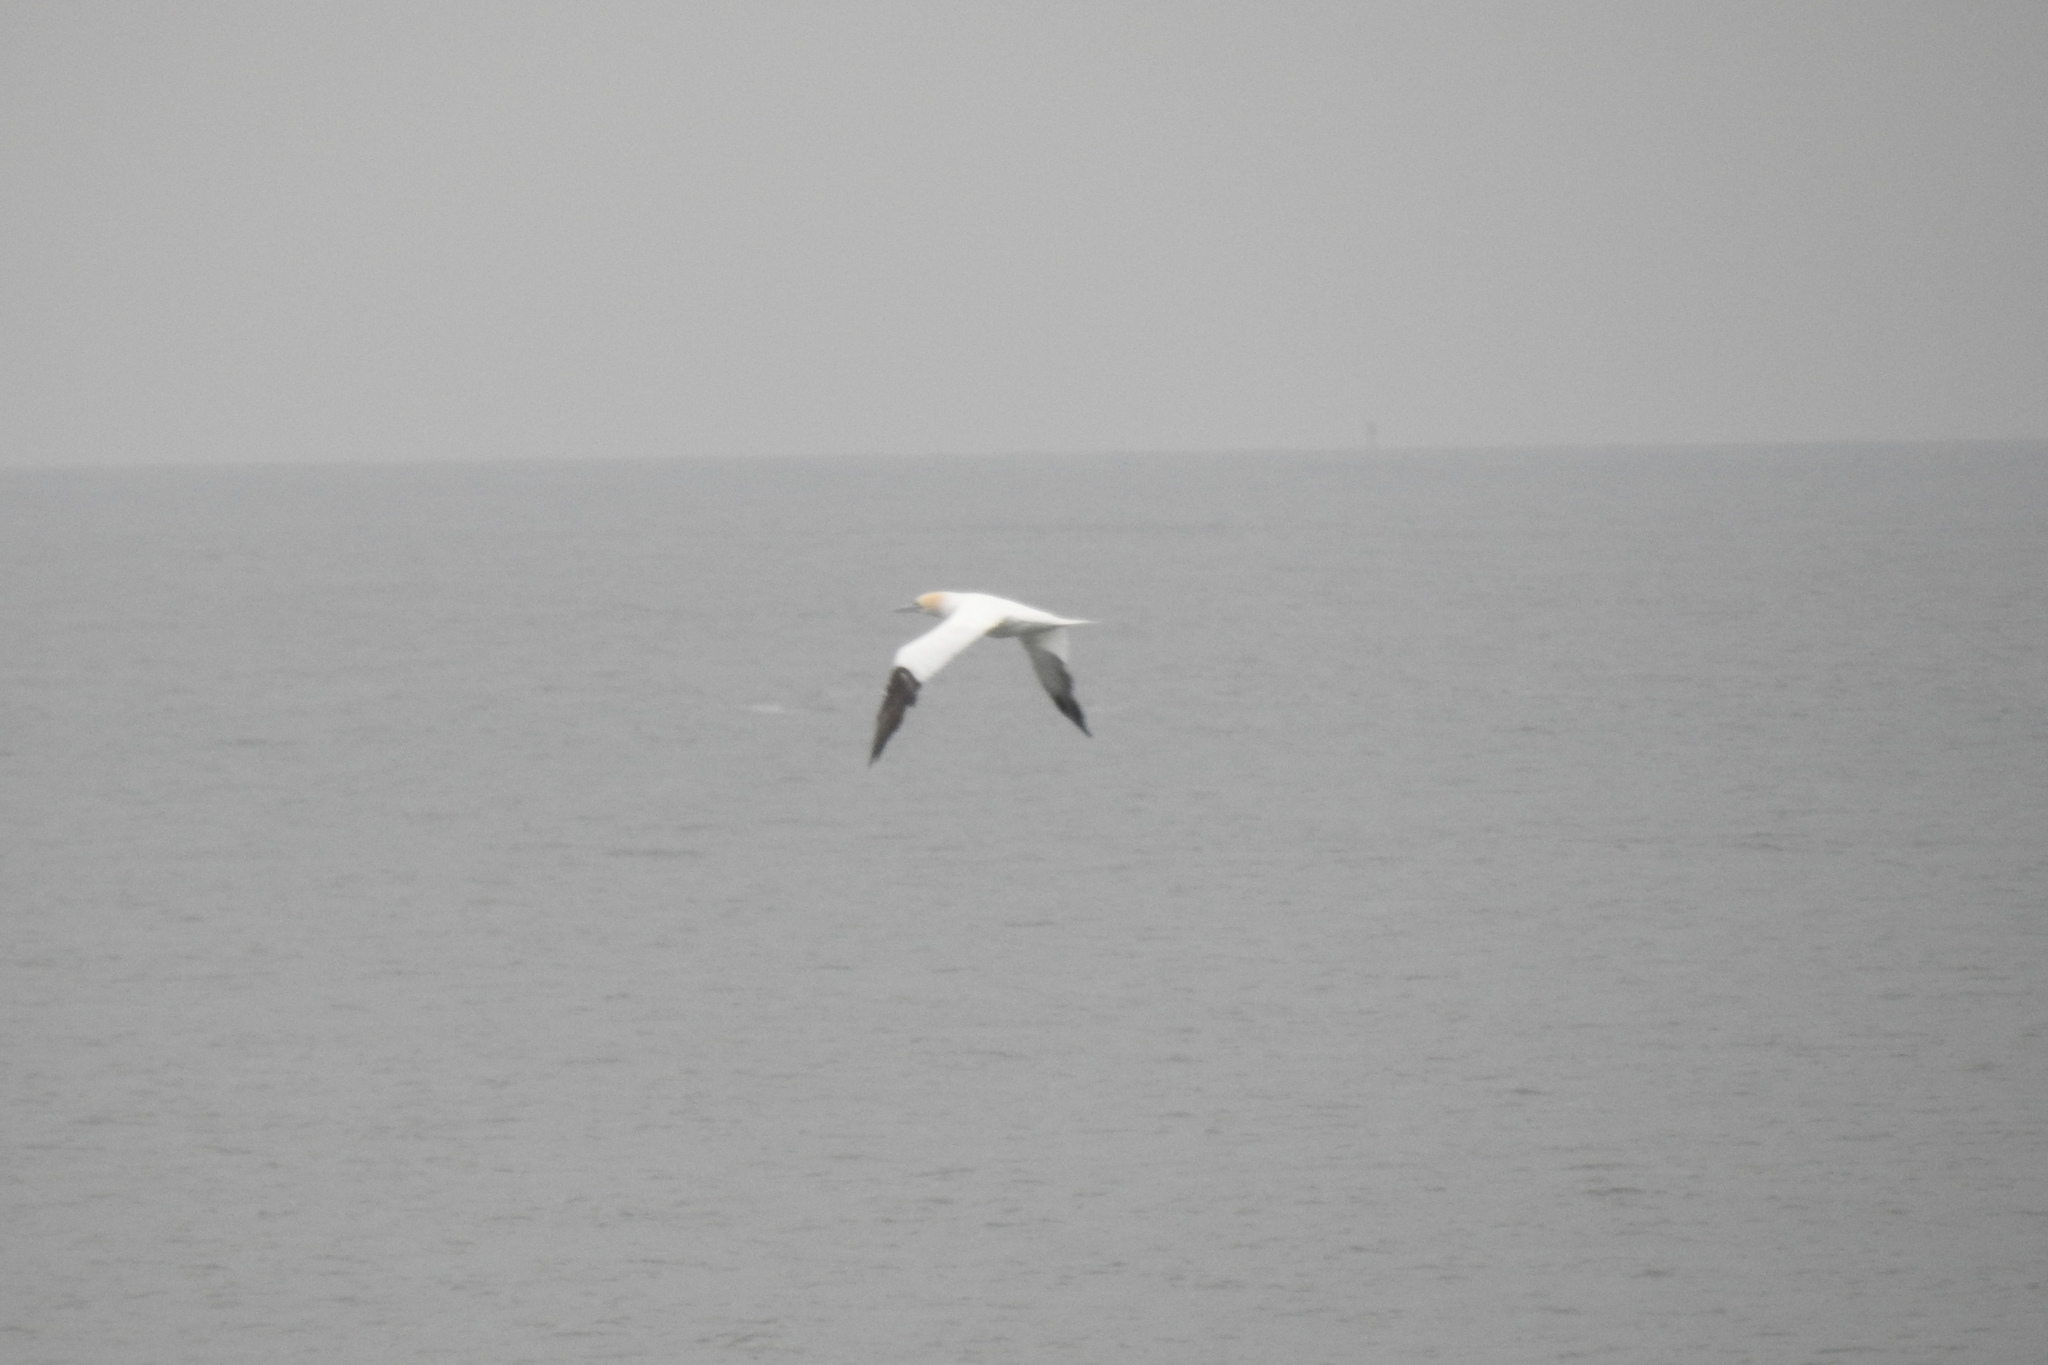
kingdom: Animalia
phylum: Chordata
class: Aves
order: Suliformes
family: Sulidae
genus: Morus
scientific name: Morus bassanus
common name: Northern gannet
